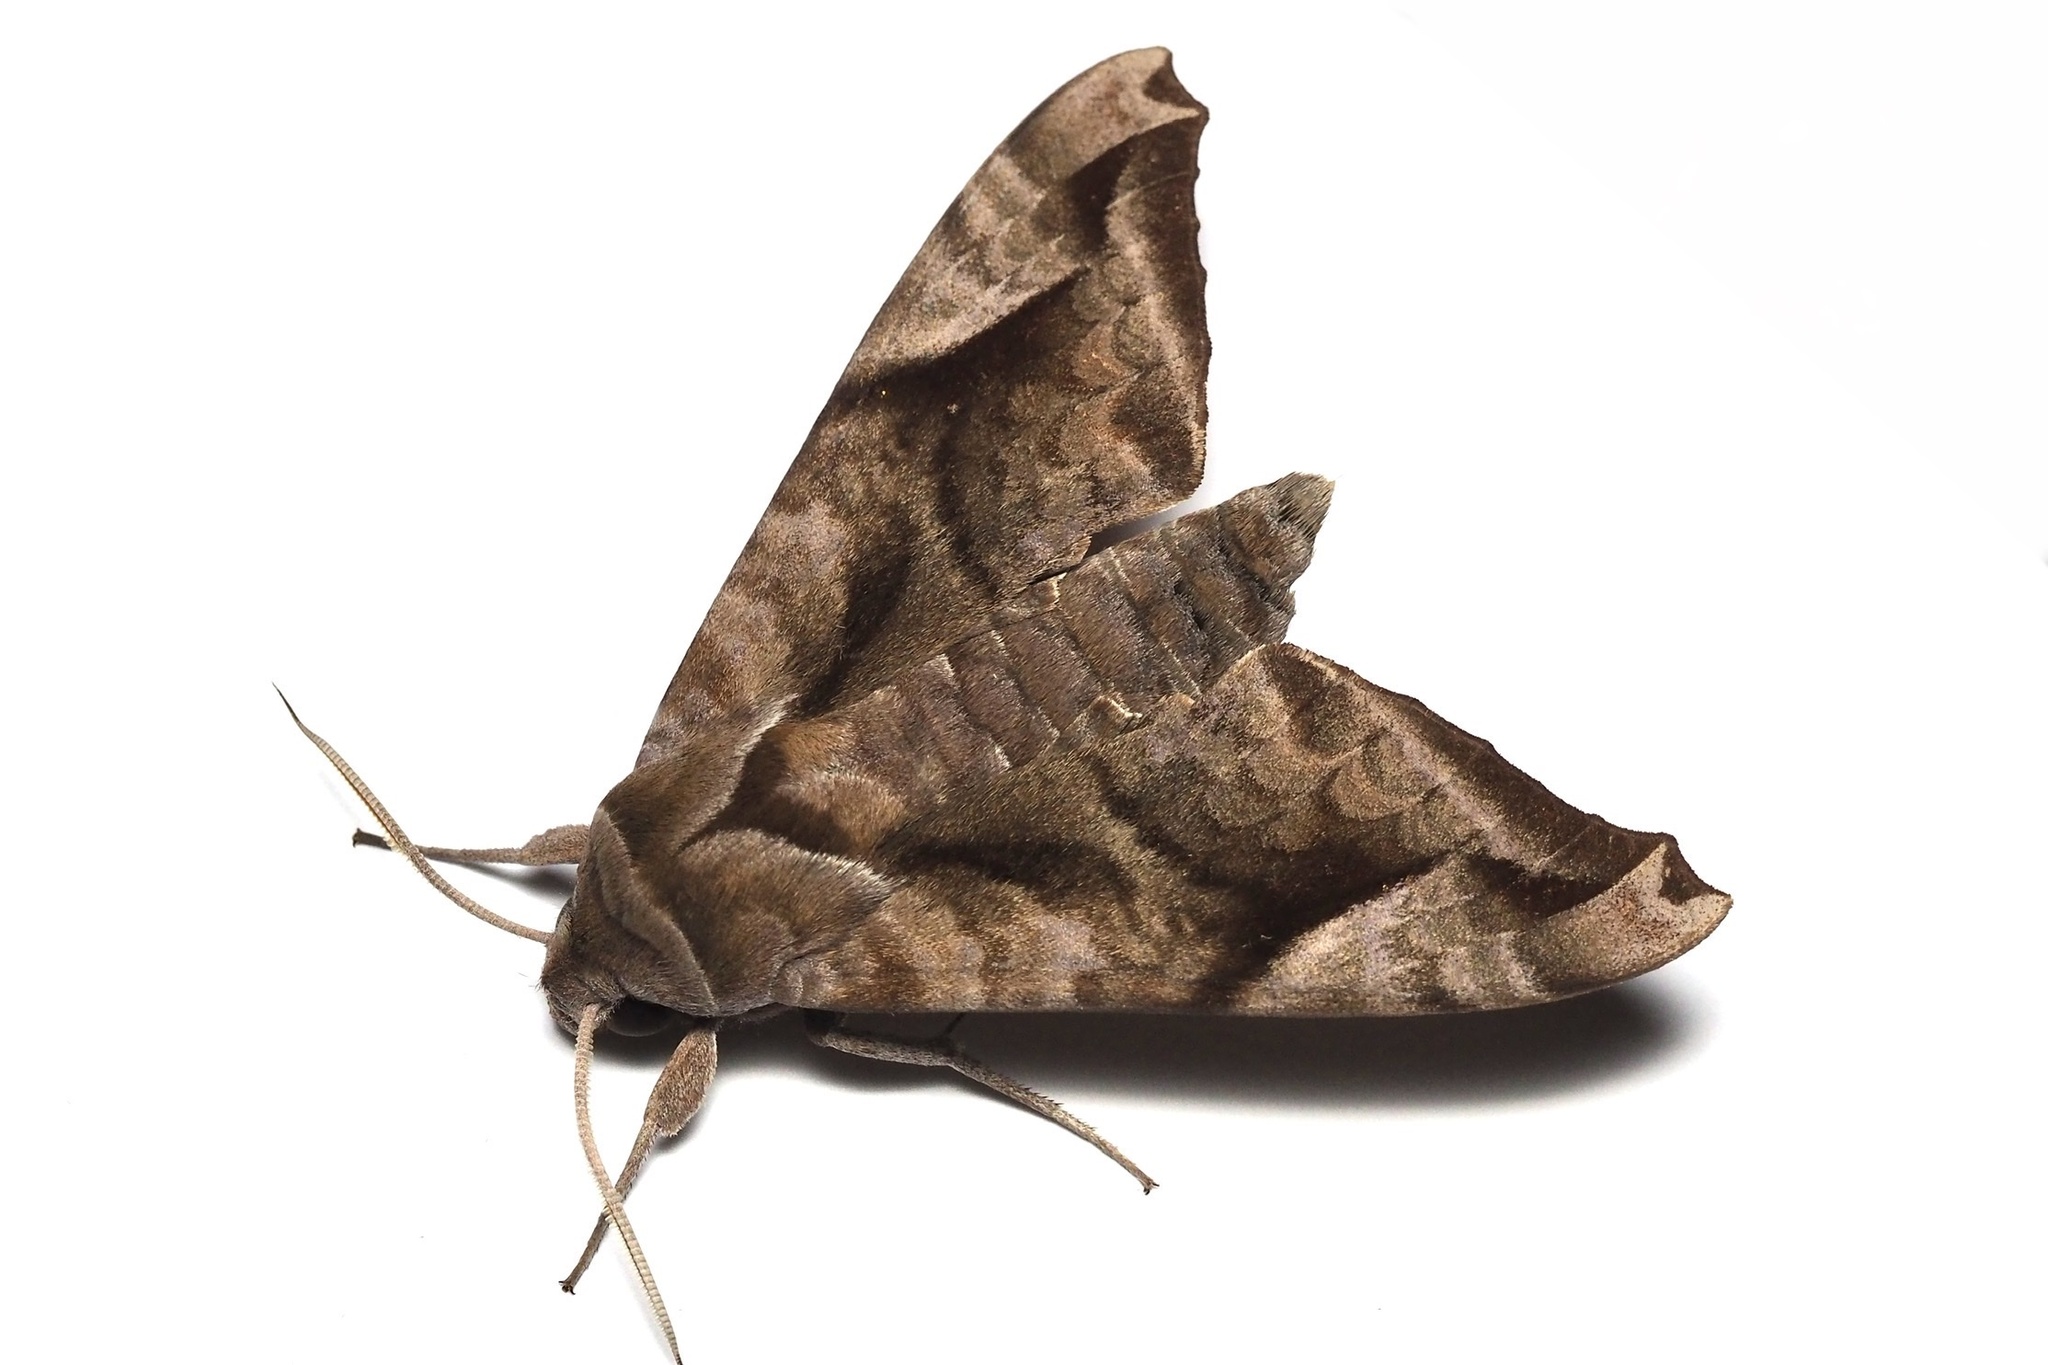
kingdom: Animalia
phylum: Arthropoda
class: Insecta
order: Lepidoptera
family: Sphingidae
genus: Acosmeryx
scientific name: Acosmeryx naga
